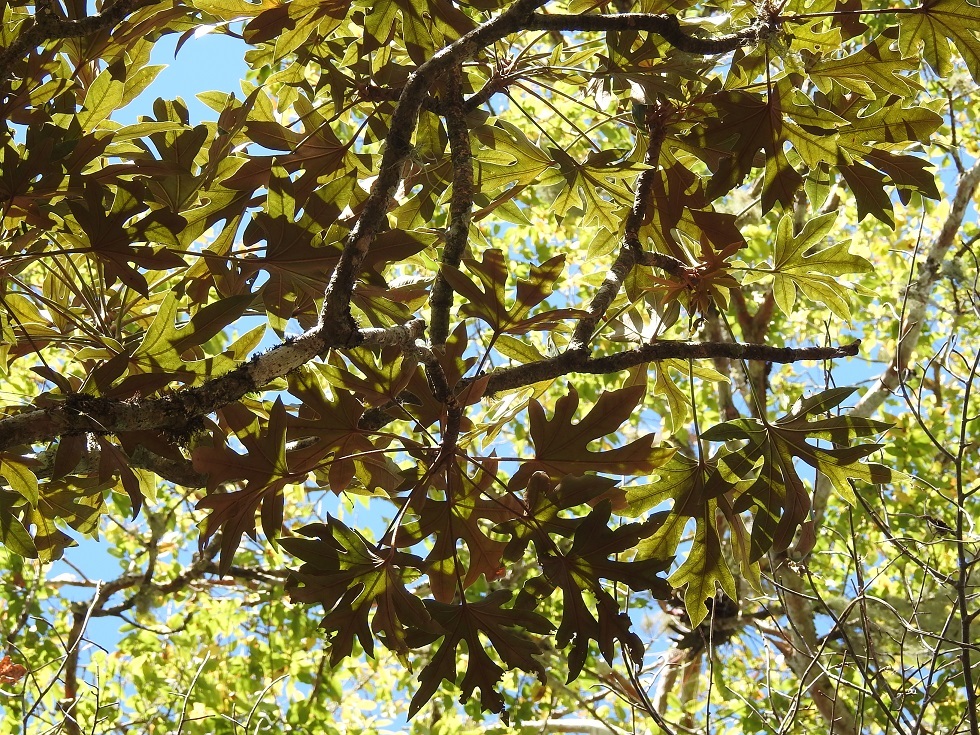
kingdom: Plantae
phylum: Tracheophyta
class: Magnoliopsida
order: Apiales
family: Araliaceae
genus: Oreopanax
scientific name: Oreopanax geminatus
